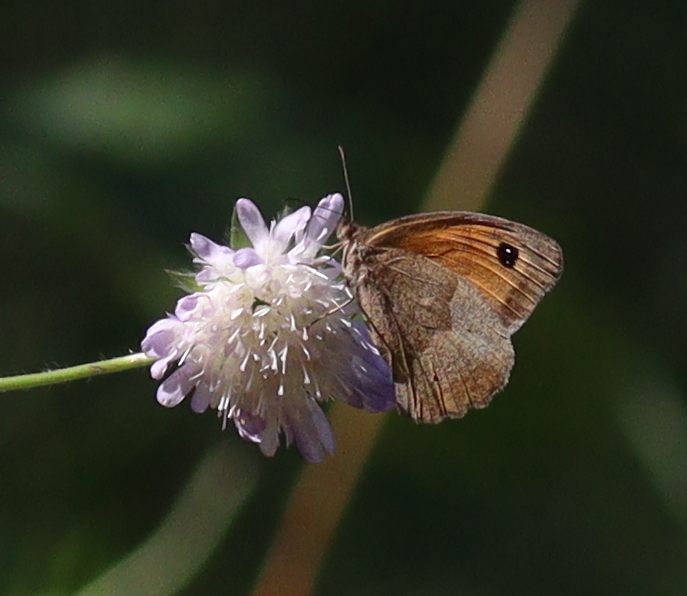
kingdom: Animalia
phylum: Arthropoda
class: Insecta
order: Lepidoptera
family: Nymphalidae
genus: Maniola
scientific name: Maniola jurtina
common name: Meadow brown
